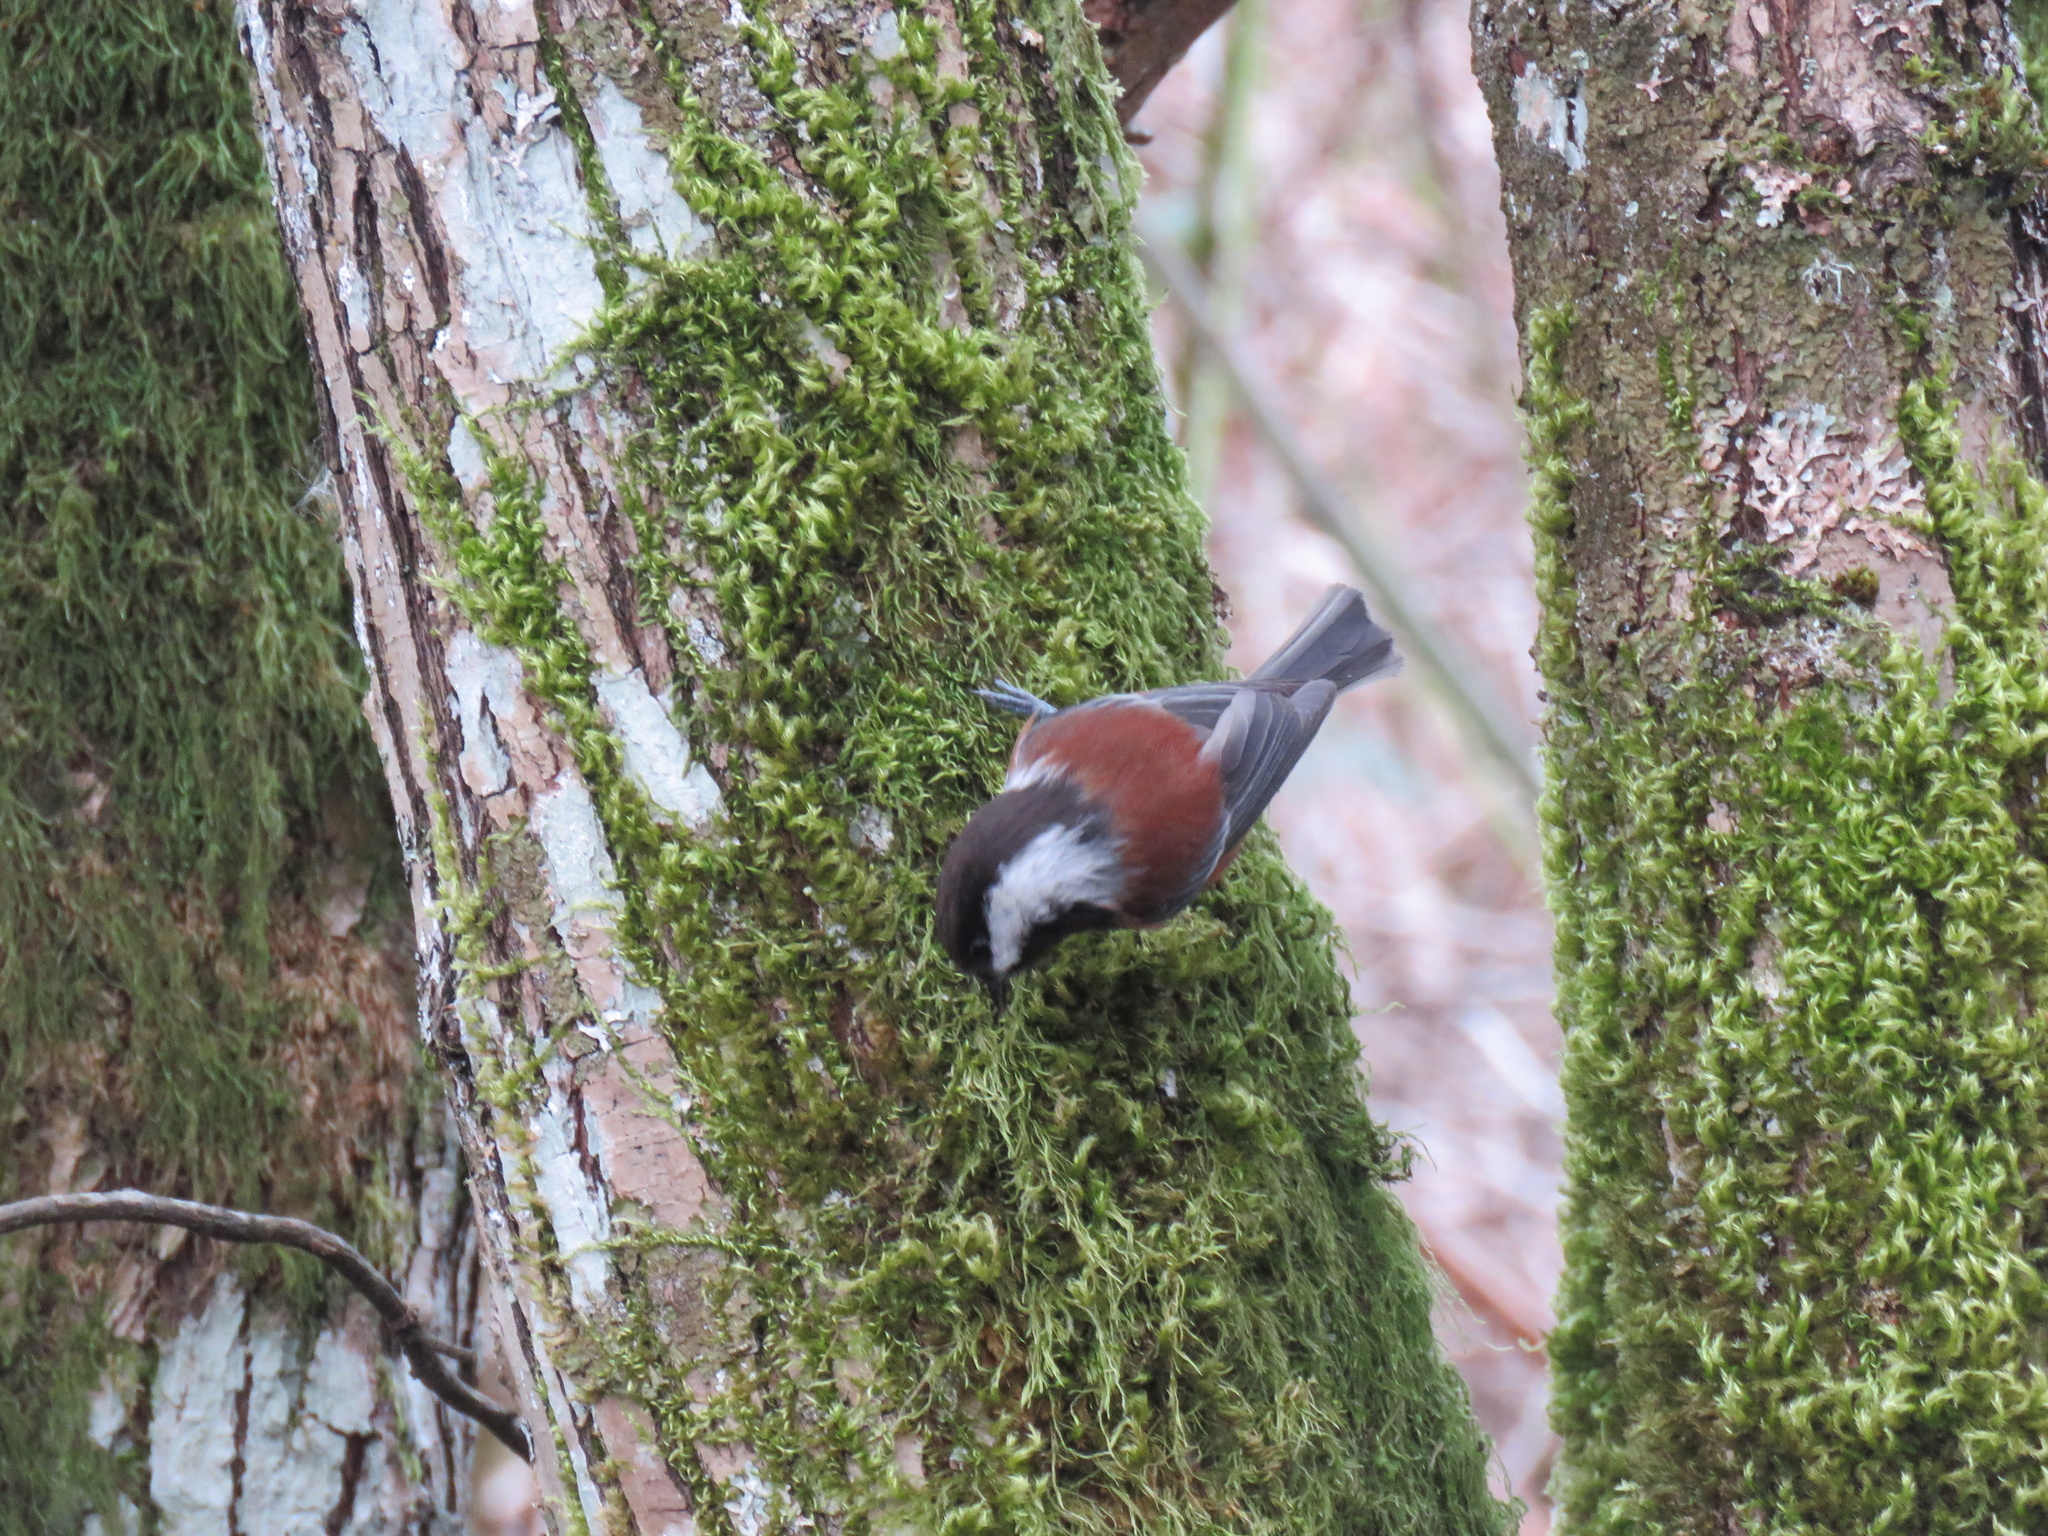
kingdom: Animalia
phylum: Chordata
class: Aves
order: Passeriformes
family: Paridae
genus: Poecile
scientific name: Poecile rufescens
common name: Chestnut-backed chickadee
